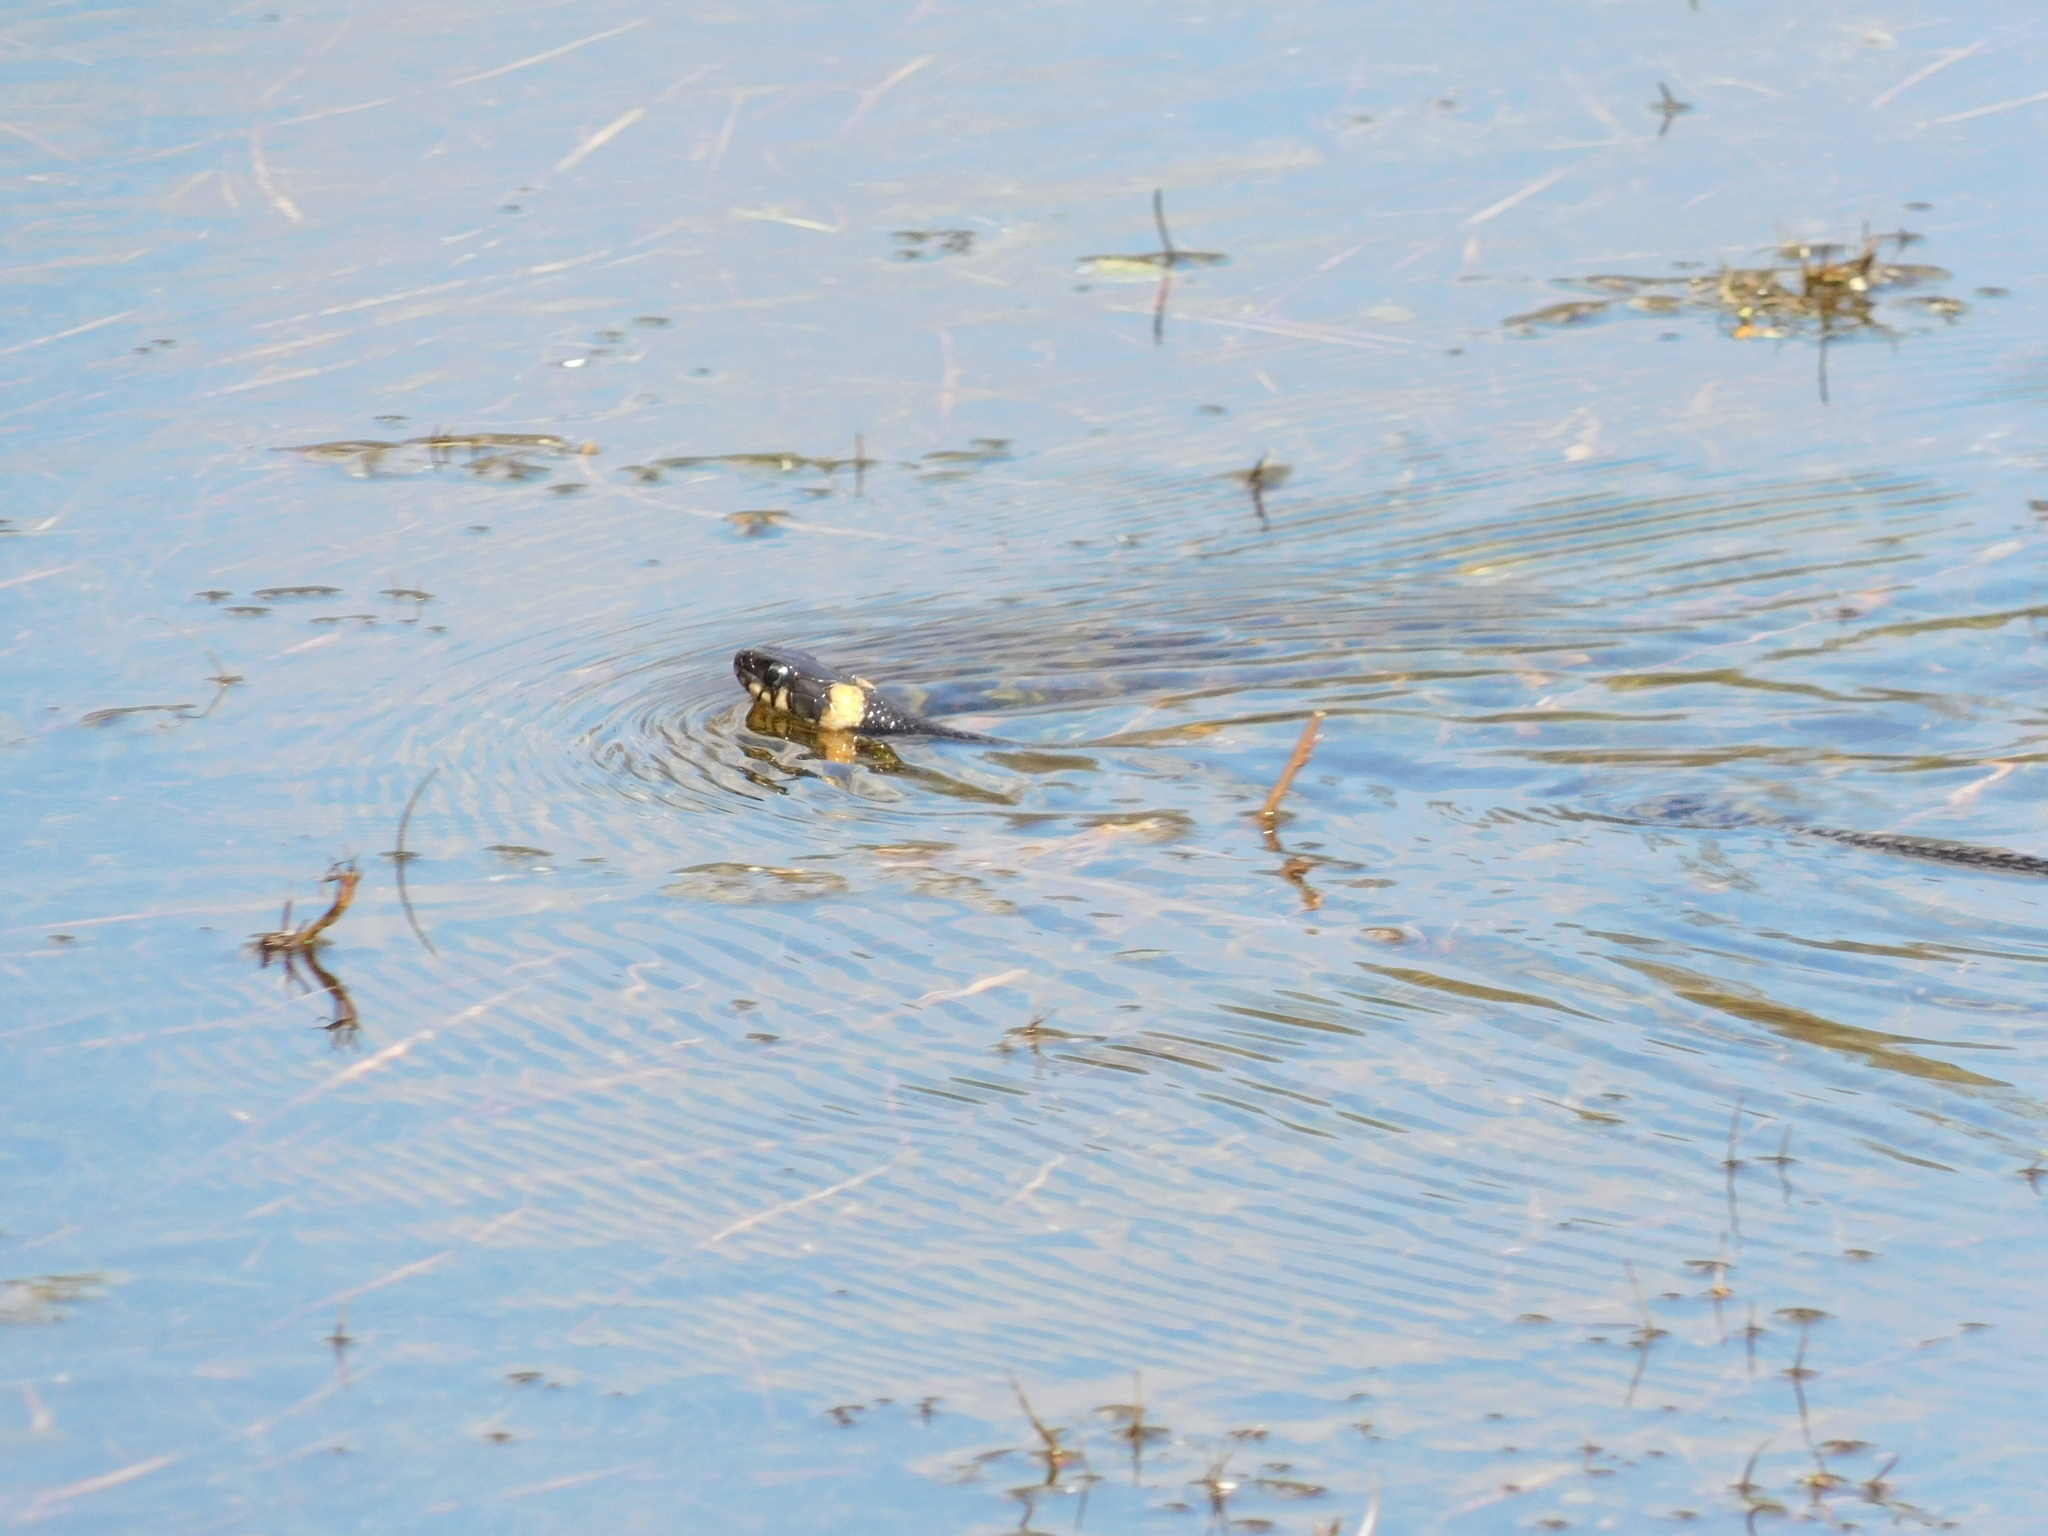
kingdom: Animalia
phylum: Chordata
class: Squamata
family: Colubridae
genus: Natrix
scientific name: Natrix natrix
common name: Grass snake
